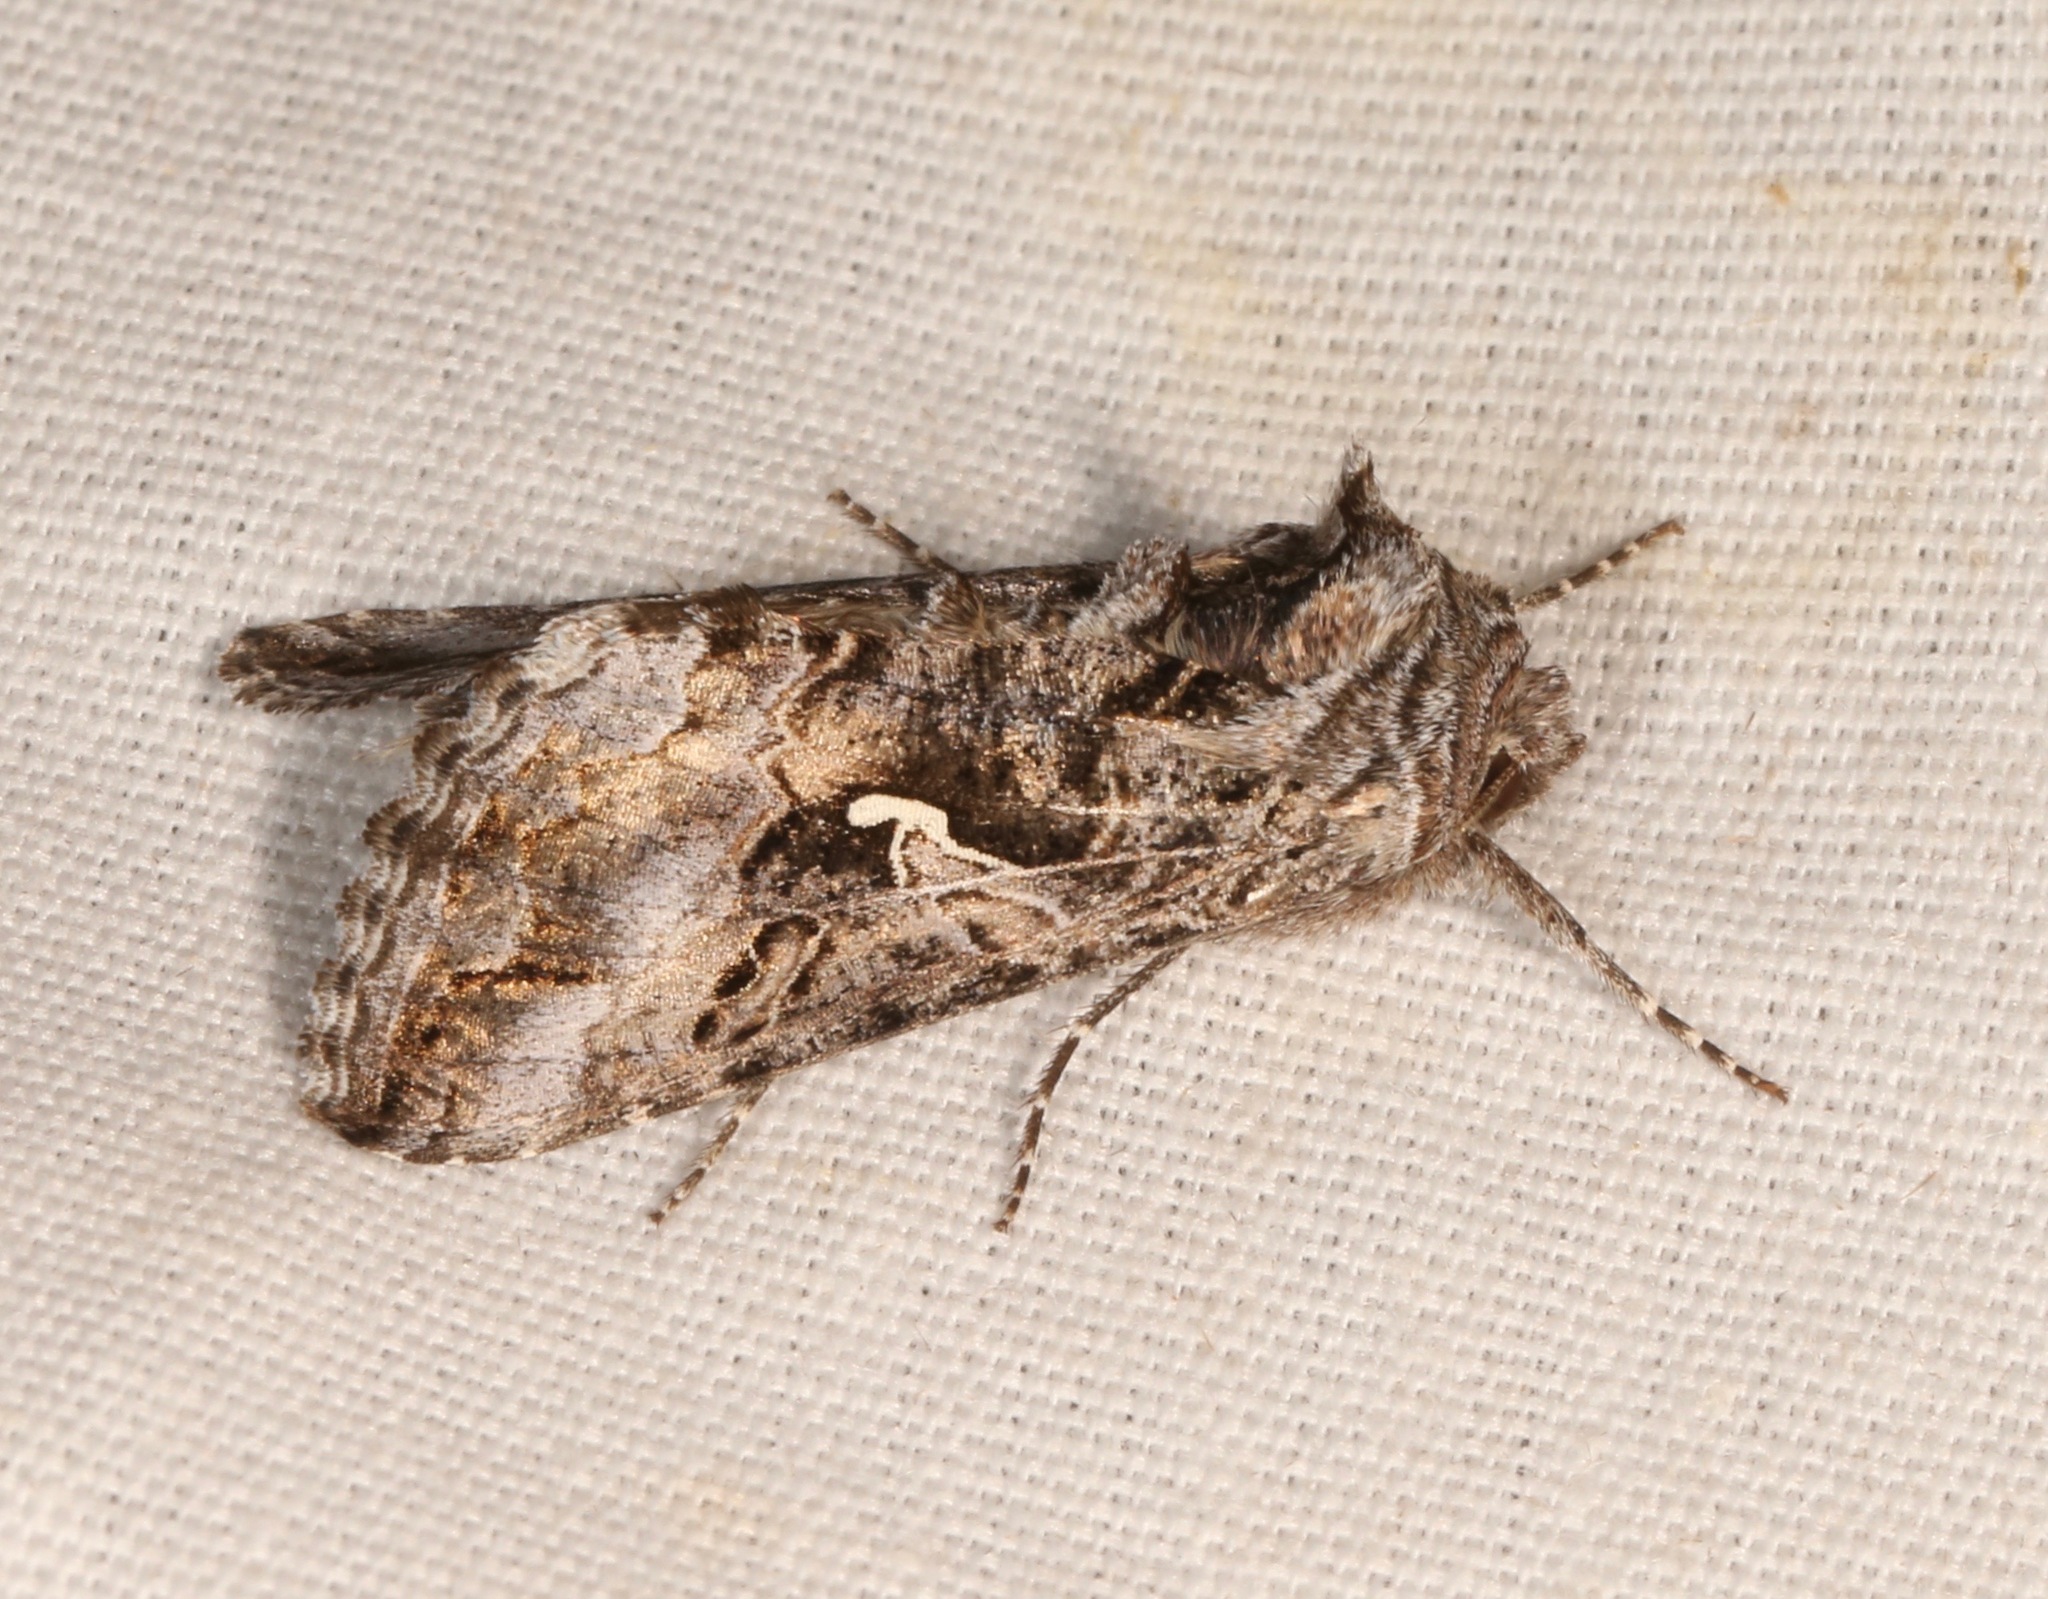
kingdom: Animalia
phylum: Arthropoda
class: Insecta
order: Lepidoptera
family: Noctuidae
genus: Autographa
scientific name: Autographa californica
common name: Alfalfa looper
